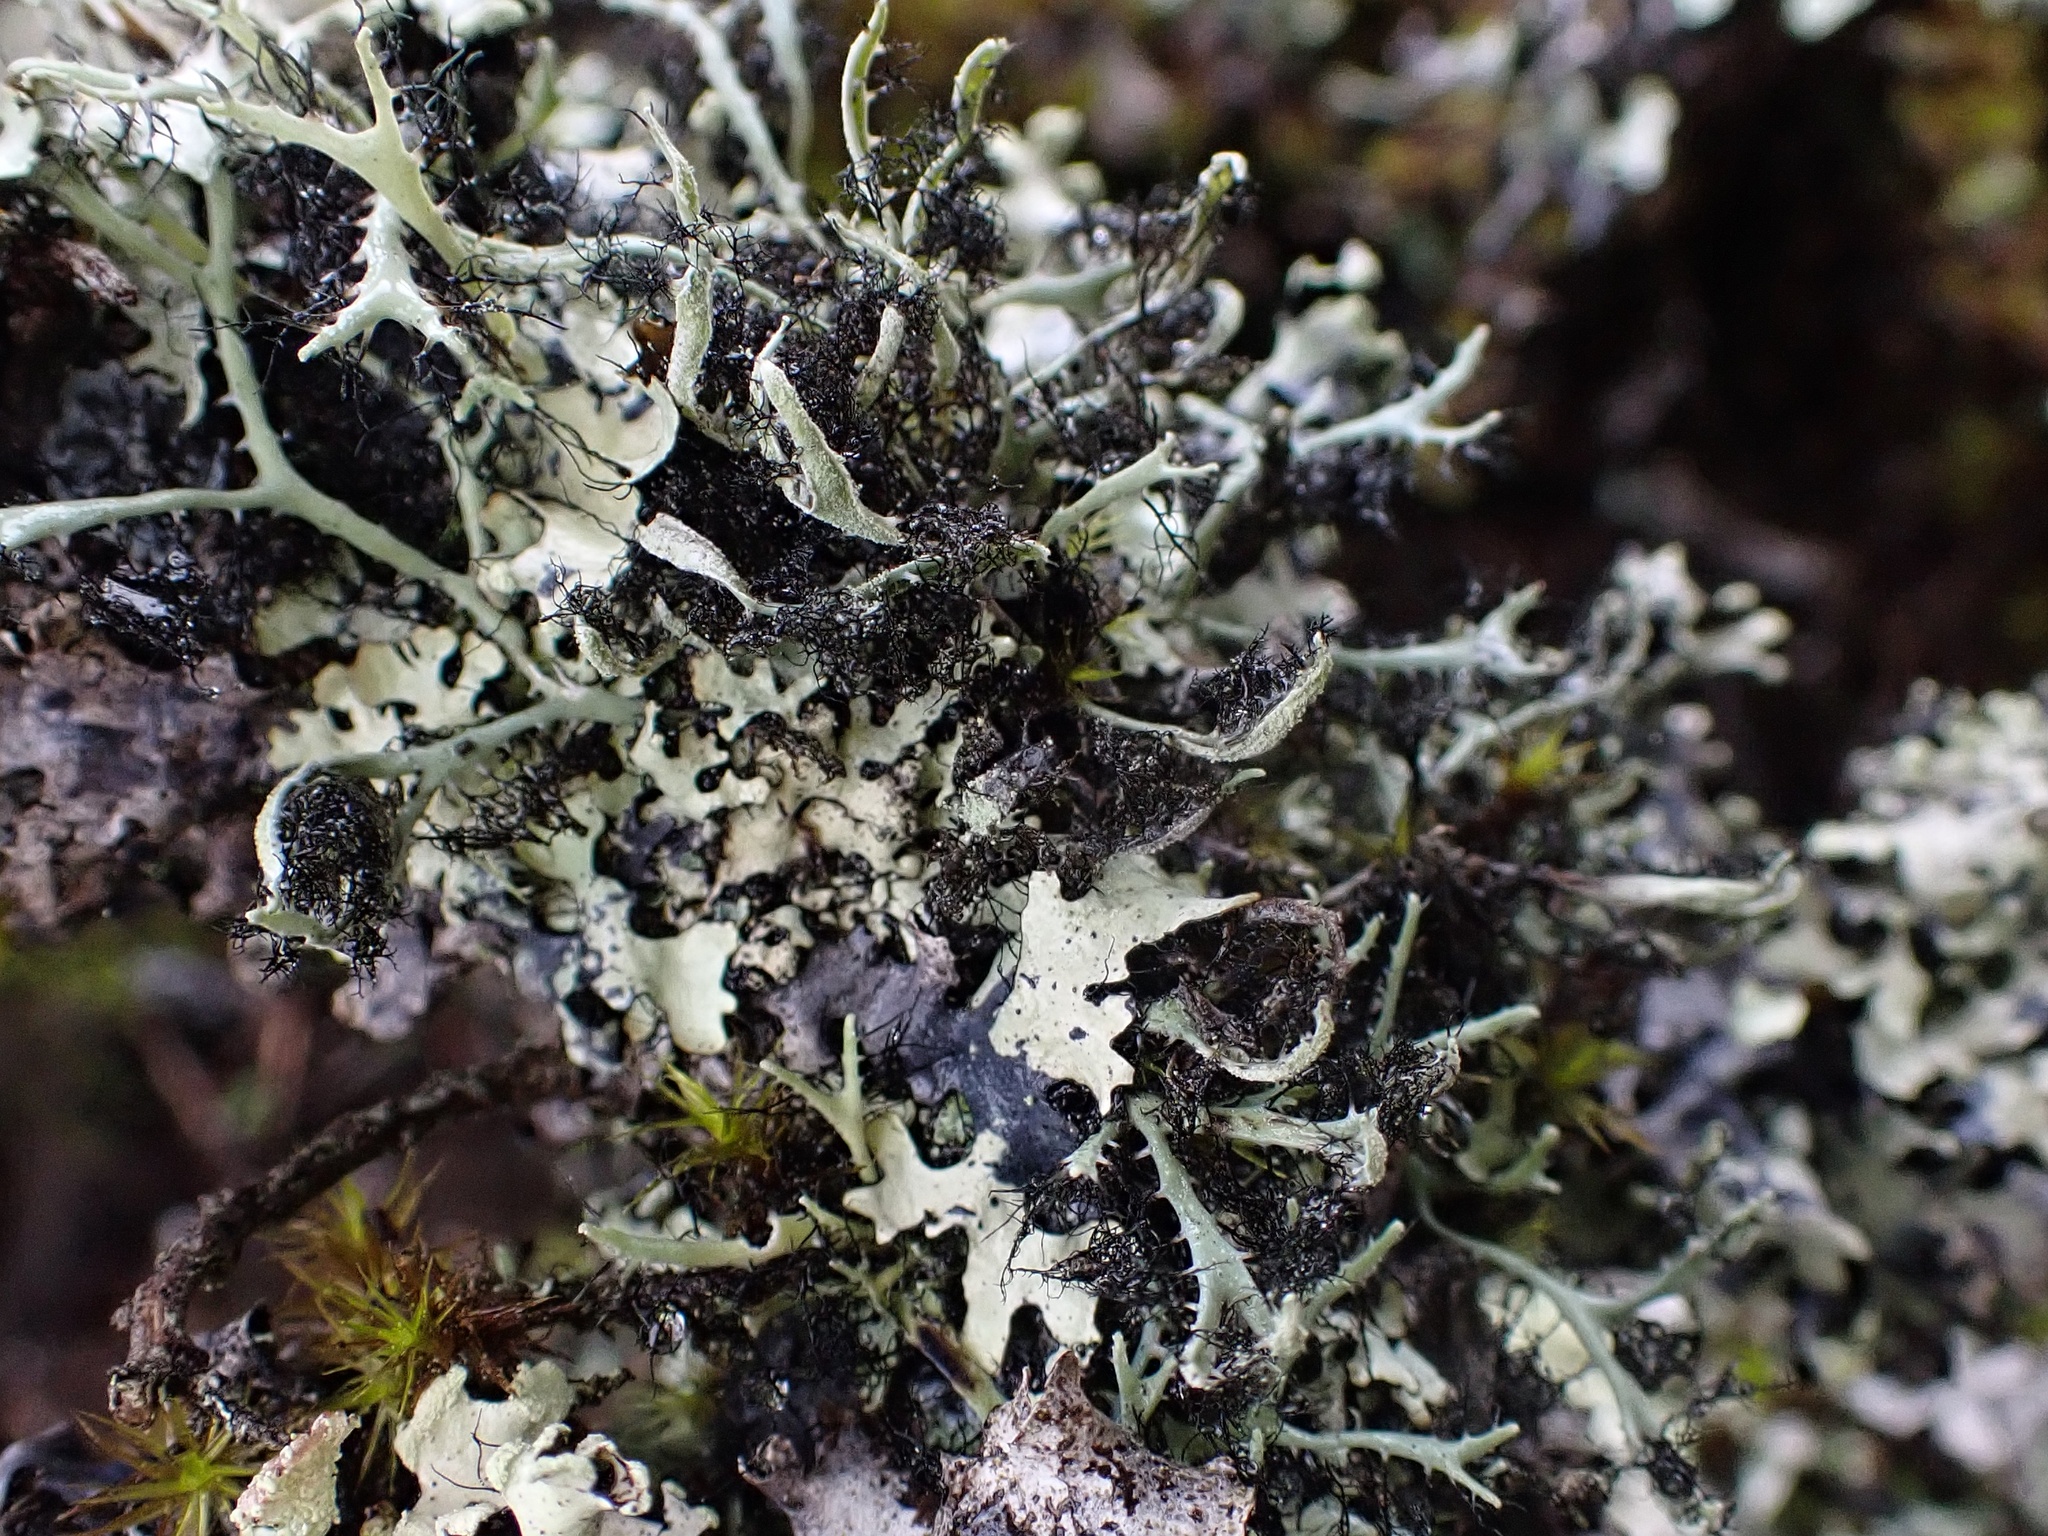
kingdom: Fungi
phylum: Ascomycota
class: Lecanoromycetes
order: Caliciales
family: Physciaceae
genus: Leucodermia
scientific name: Leucodermia leucomelos
